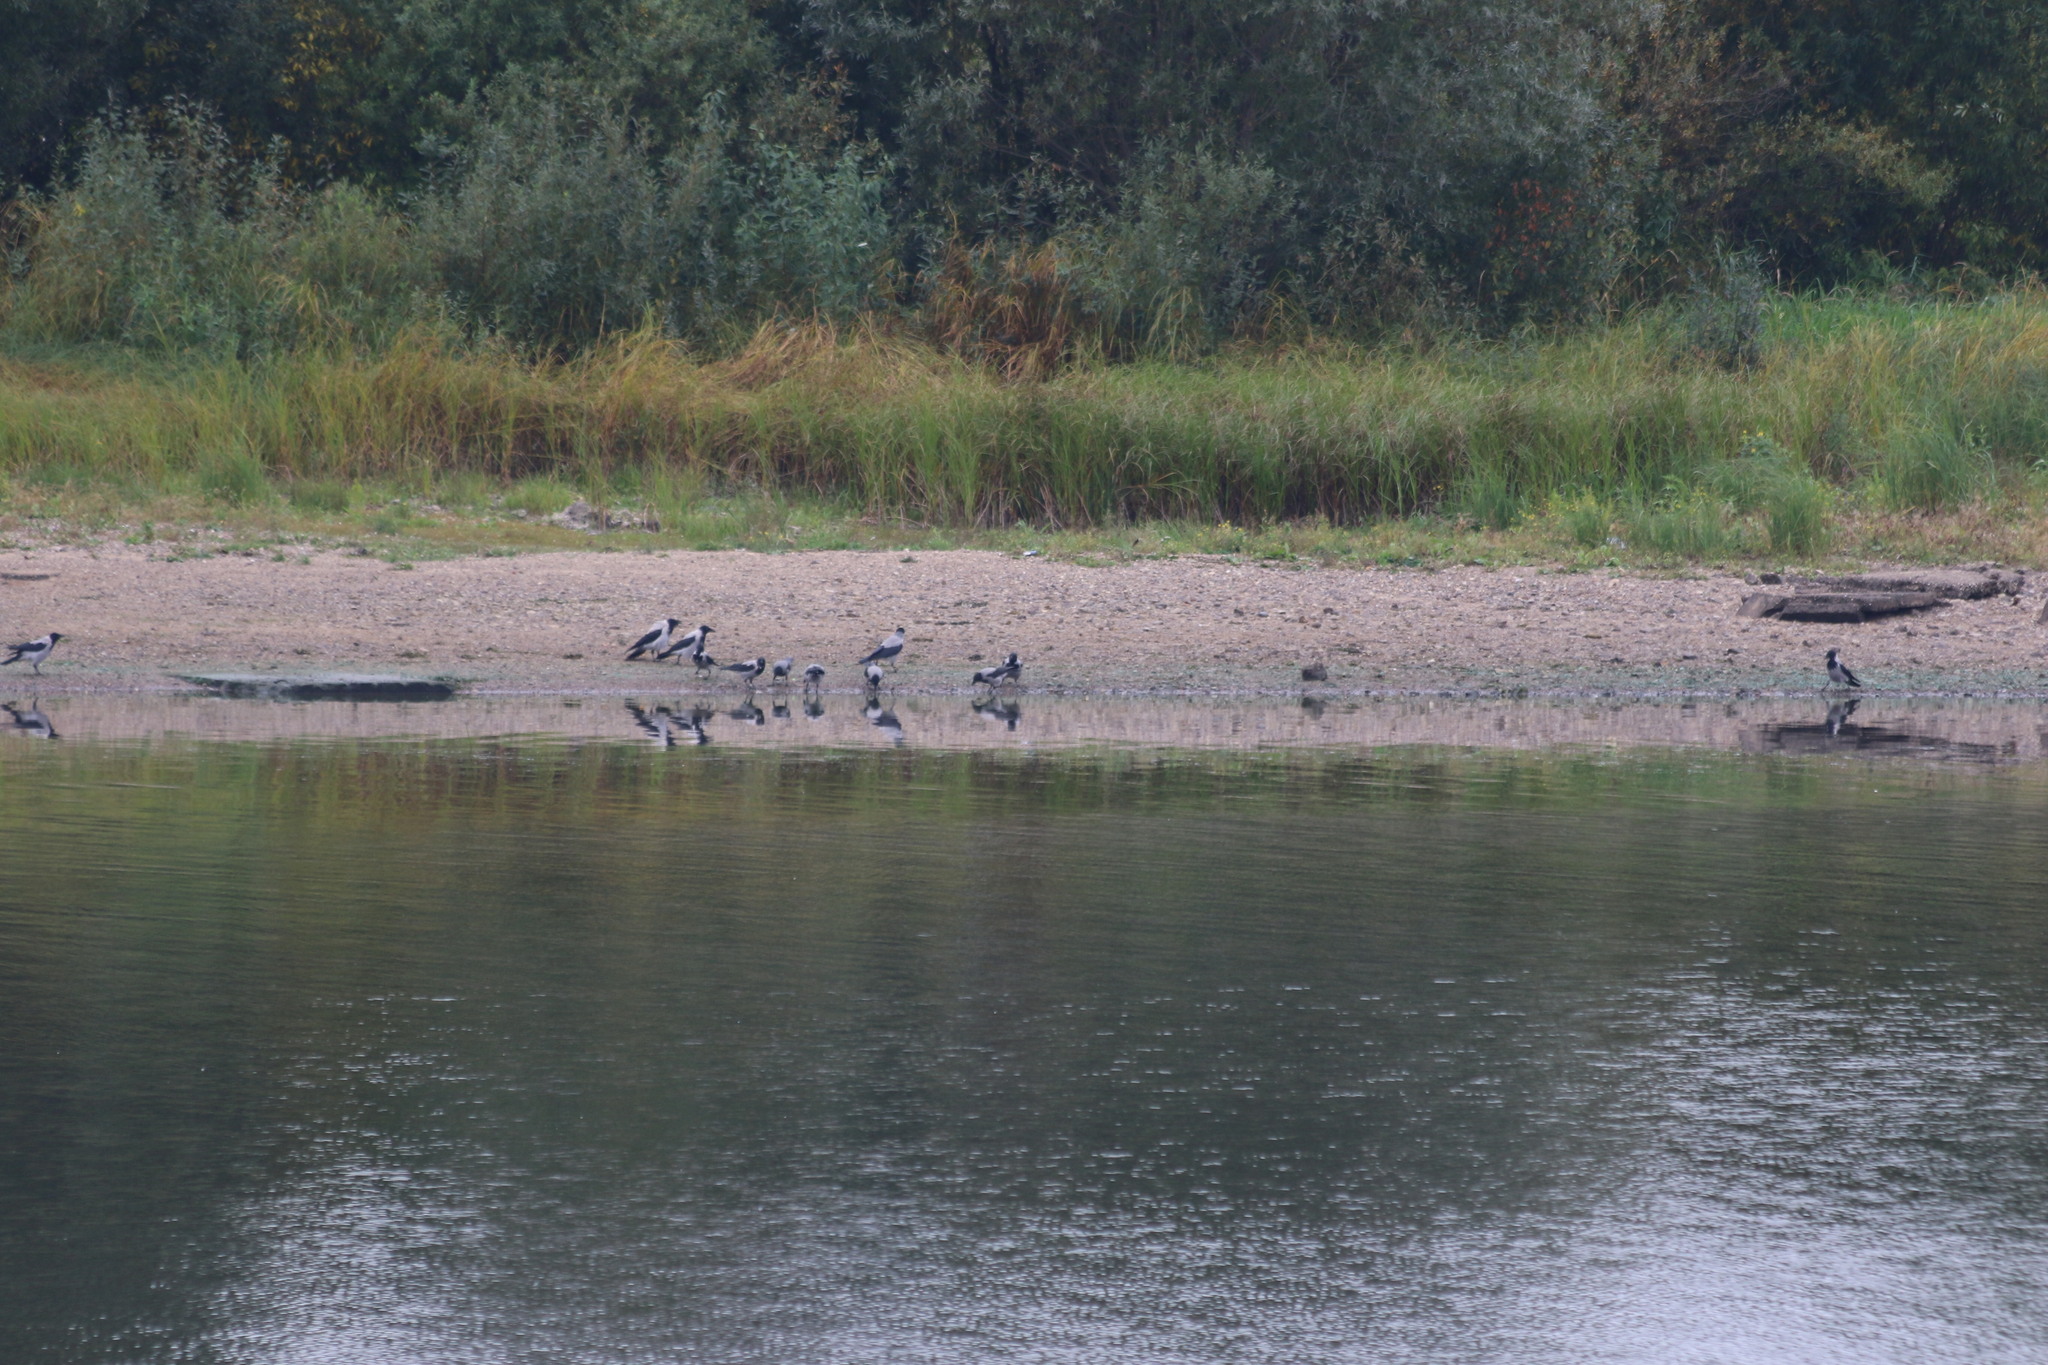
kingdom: Animalia
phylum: Chordata
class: Aves
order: Passeriformes
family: Corvidae
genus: Corvus
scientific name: Corvus cornix
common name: Hooded crow
